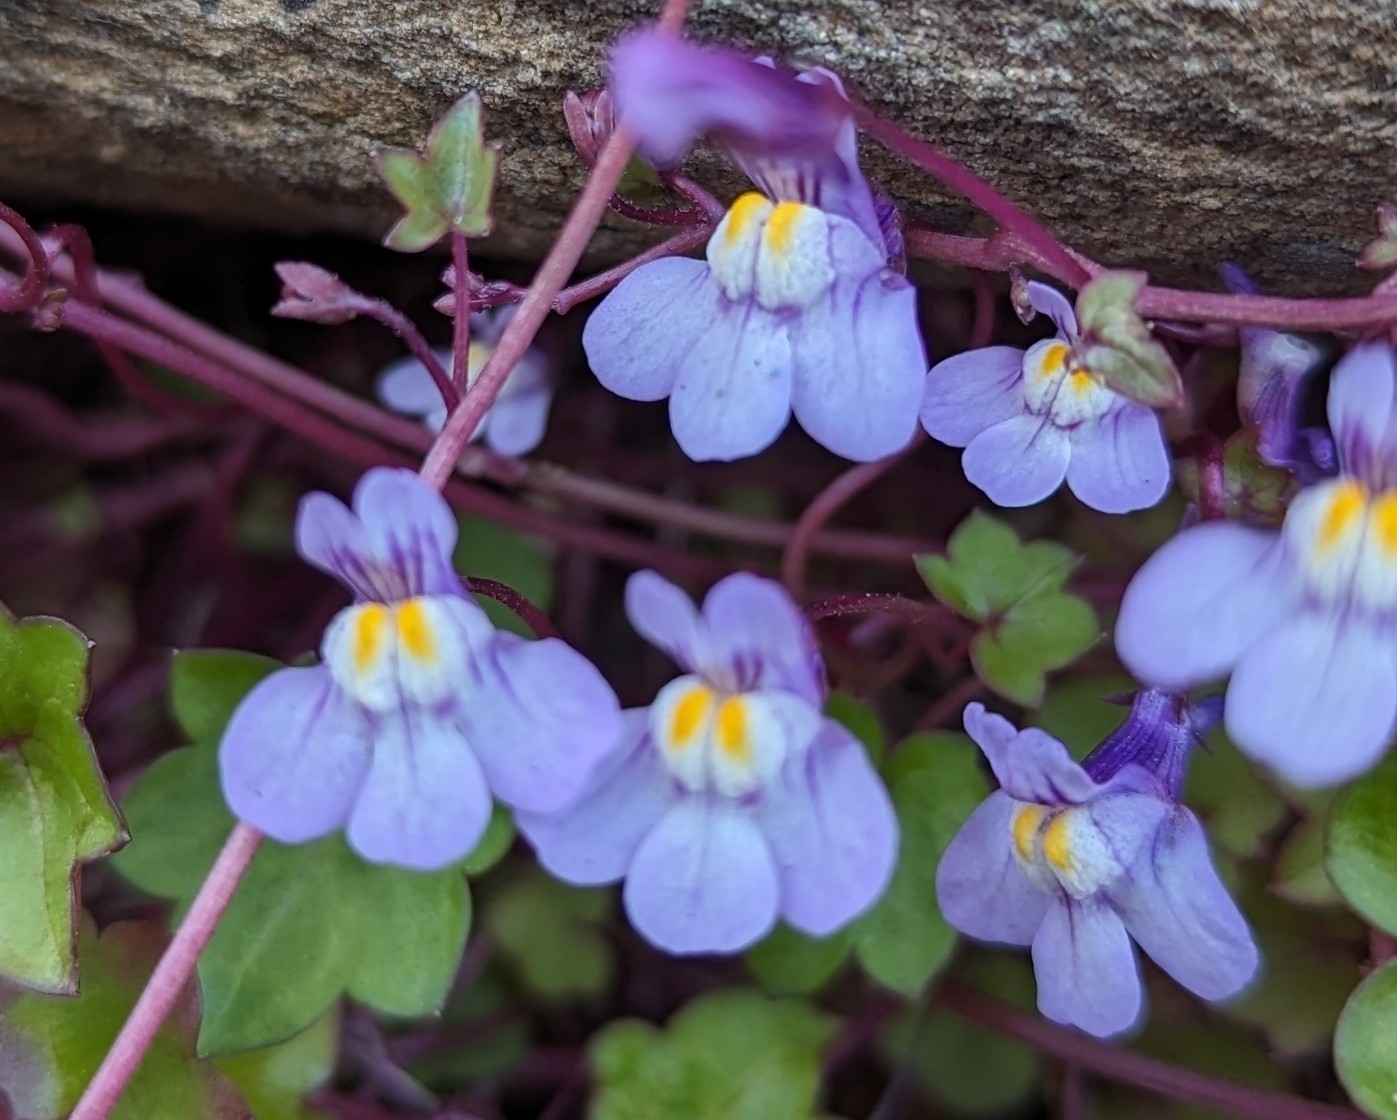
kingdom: Plantae
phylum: Tracheophyta
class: Magnoliopsida
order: Lamiales
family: Plantaginaceae
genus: Cymbalaria
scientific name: Cymbalaria muralis
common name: Ivy-leaved toadflax
